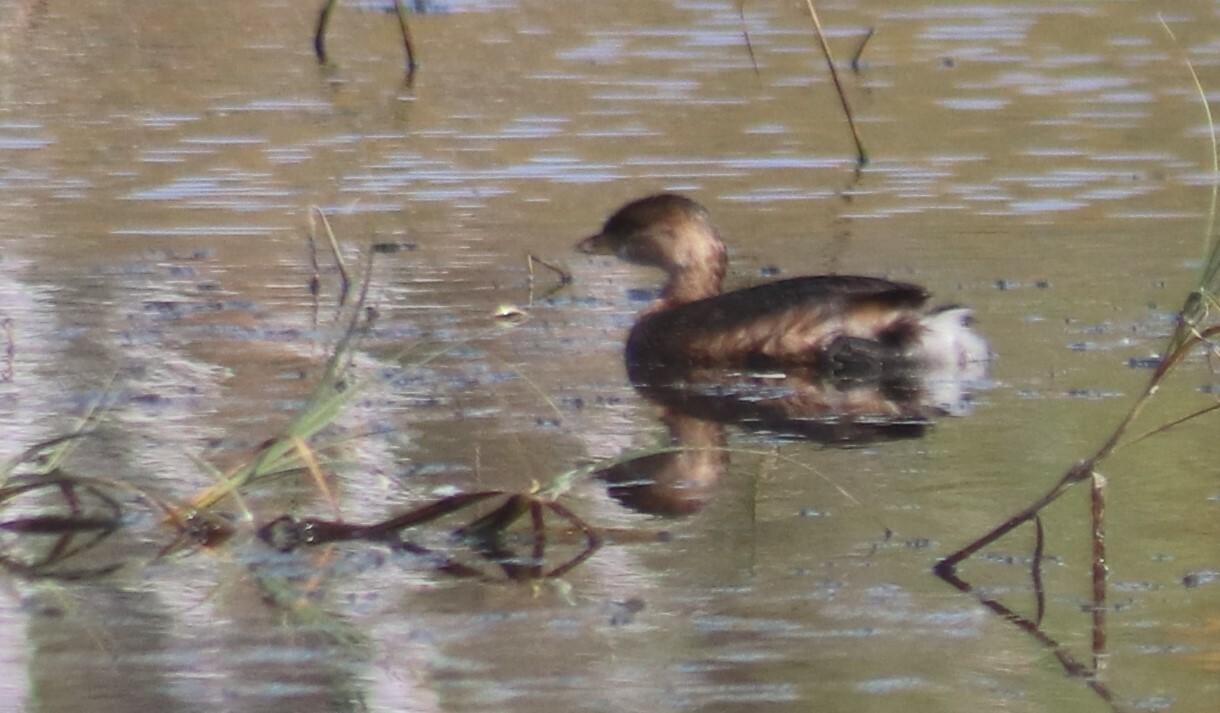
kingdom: Animalia
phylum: Chordata
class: Aves
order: Podicipediformes
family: Podicipedidae
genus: Podilymbus
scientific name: Podilymbus podiceps
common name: Pied-billed grebe
